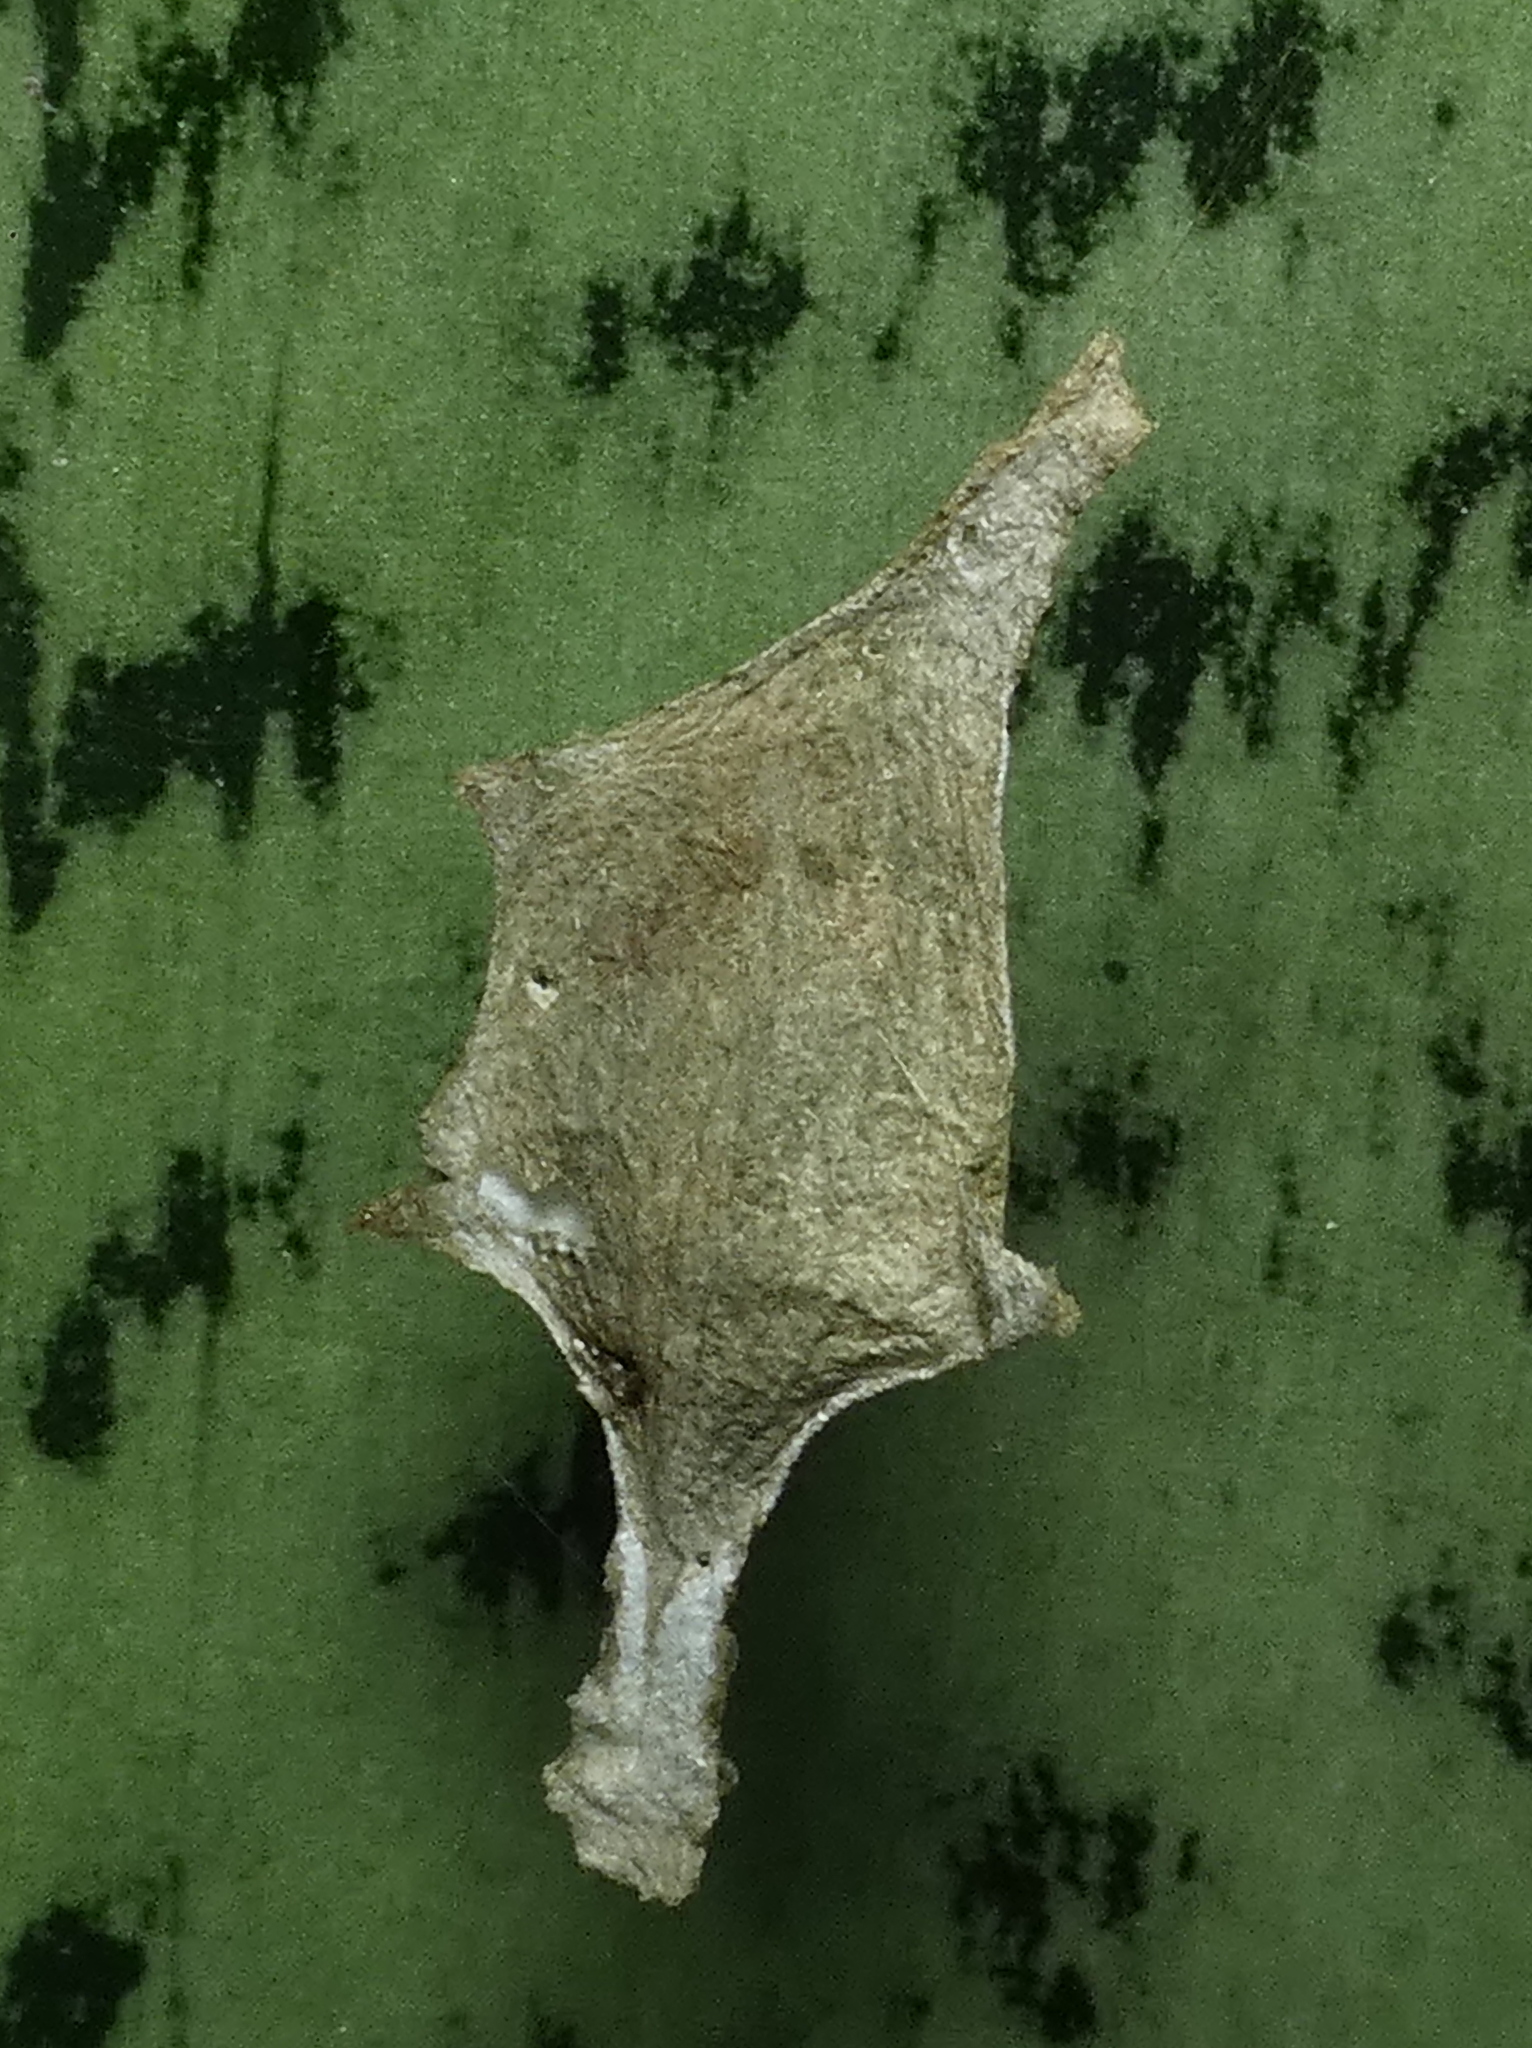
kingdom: Animalia
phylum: Arthropoda
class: Arachnida
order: Araneae
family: Araneidae
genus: Argiope
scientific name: Argiope argentata
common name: Orb weavers
